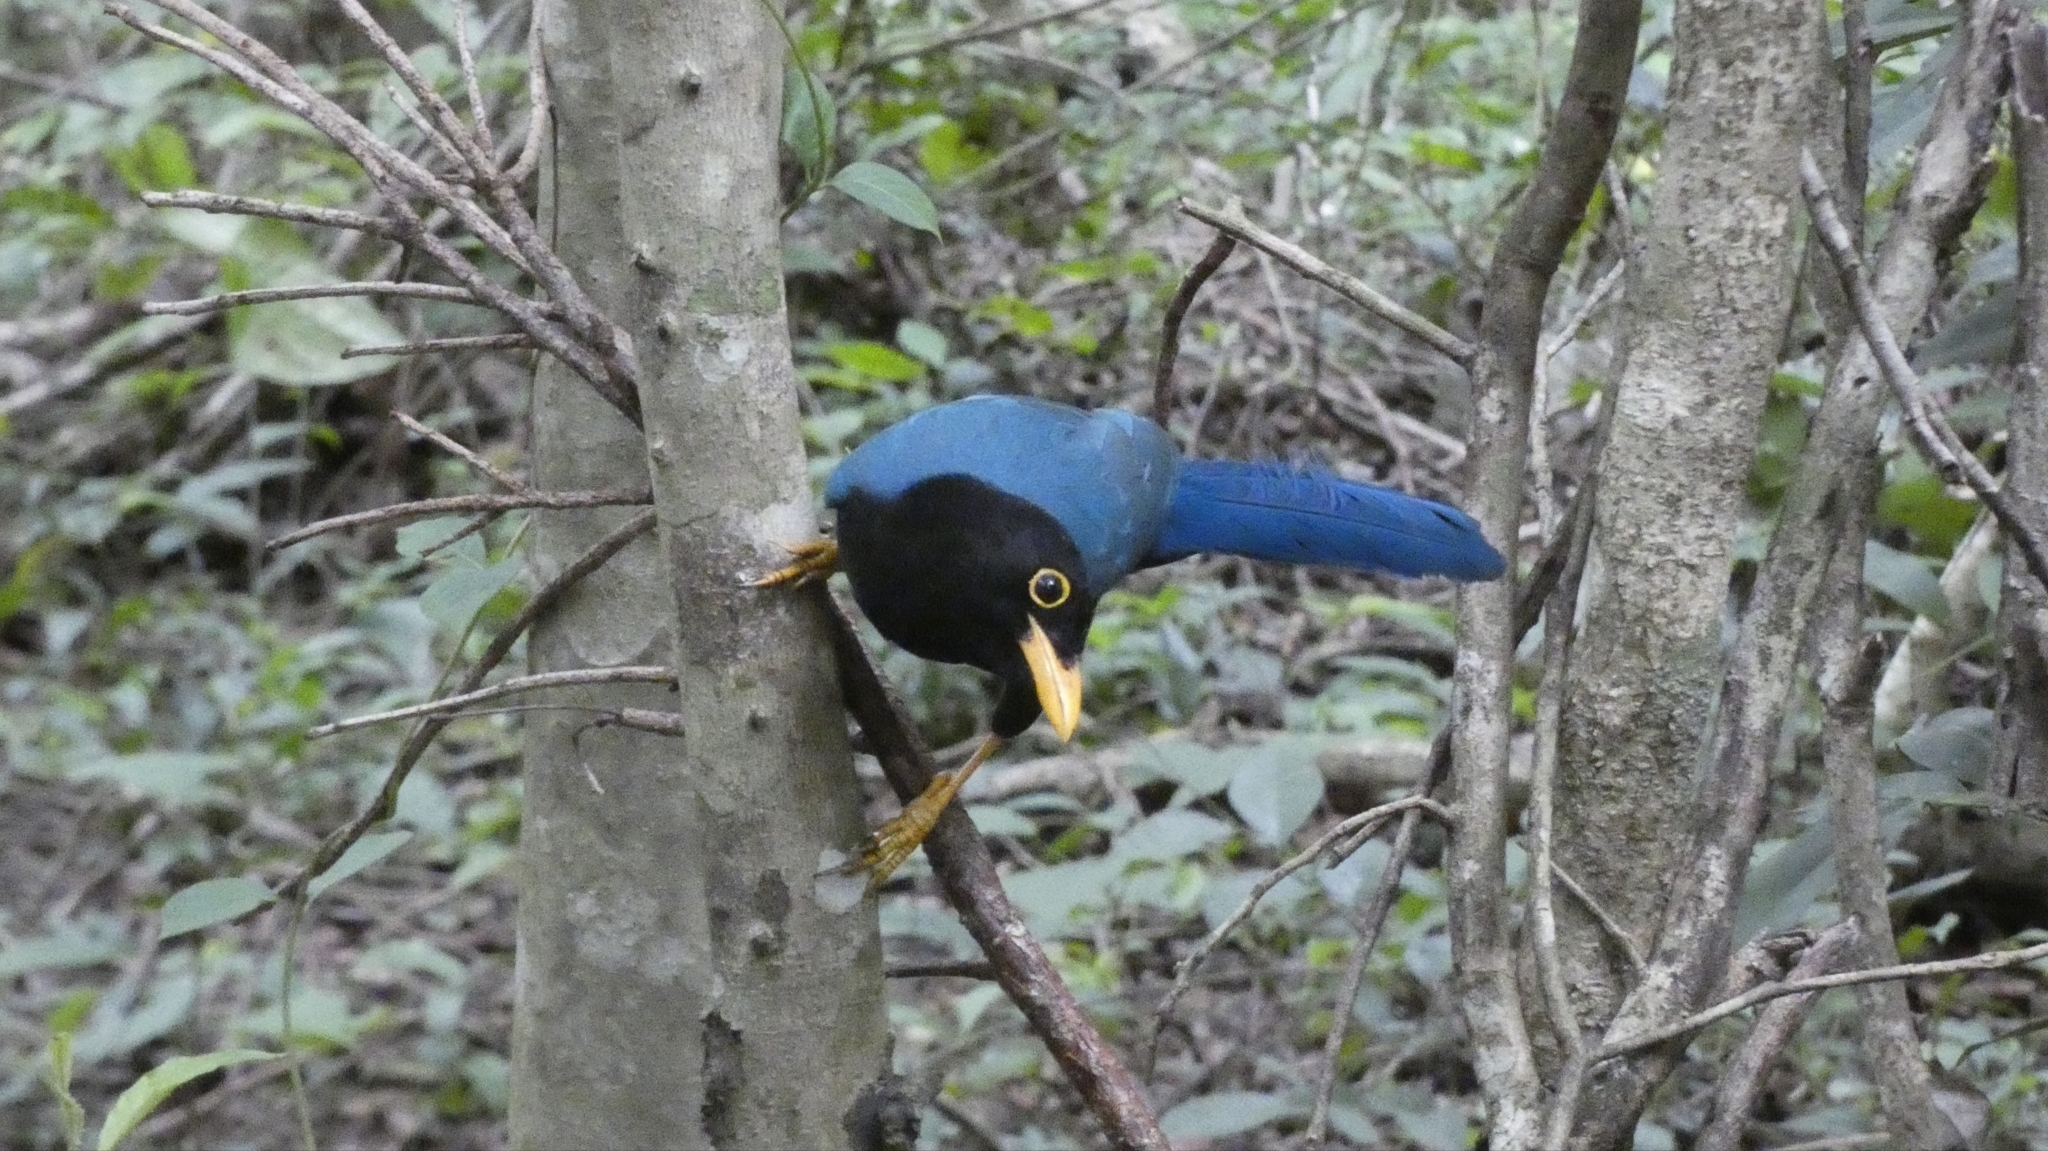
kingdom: Animalia
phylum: Chordata
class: Aves
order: Passeriformes
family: Corvidae
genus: Cyanocorax
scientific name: Cyanocorax yucatanicus
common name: Yucatan jay
